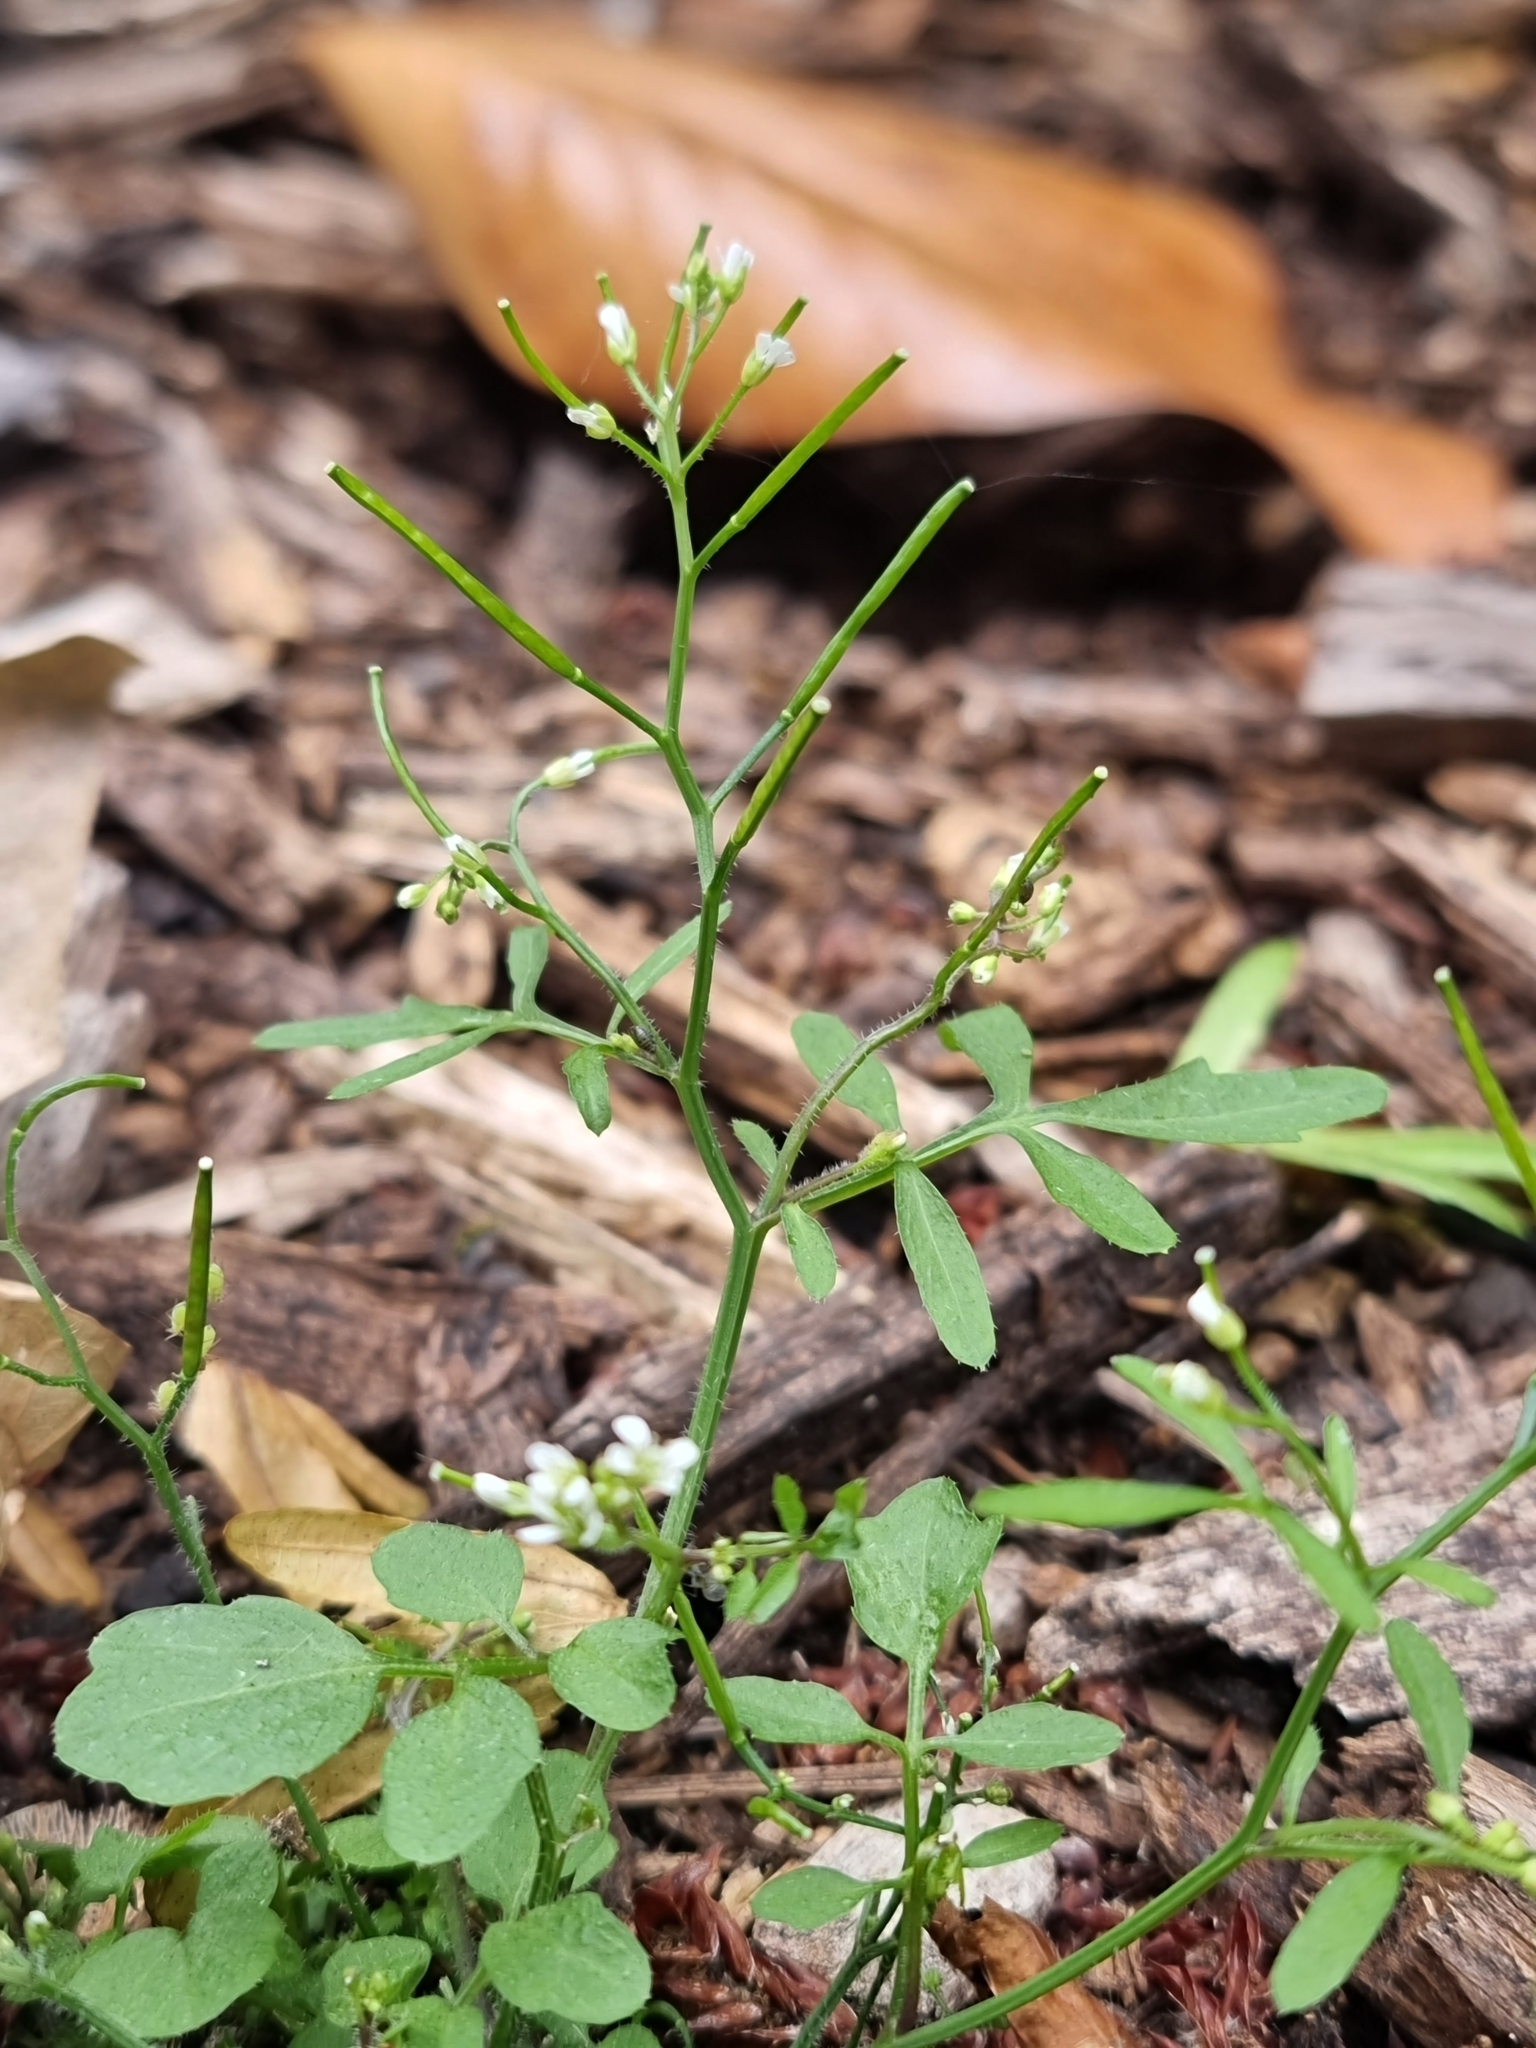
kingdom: Plantae
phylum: Tracheophyta
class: Magnoliopsida
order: Brassicales
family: Brassicaceae
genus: Cardamine
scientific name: Cardamine flexuosa
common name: Woodland bittercress
